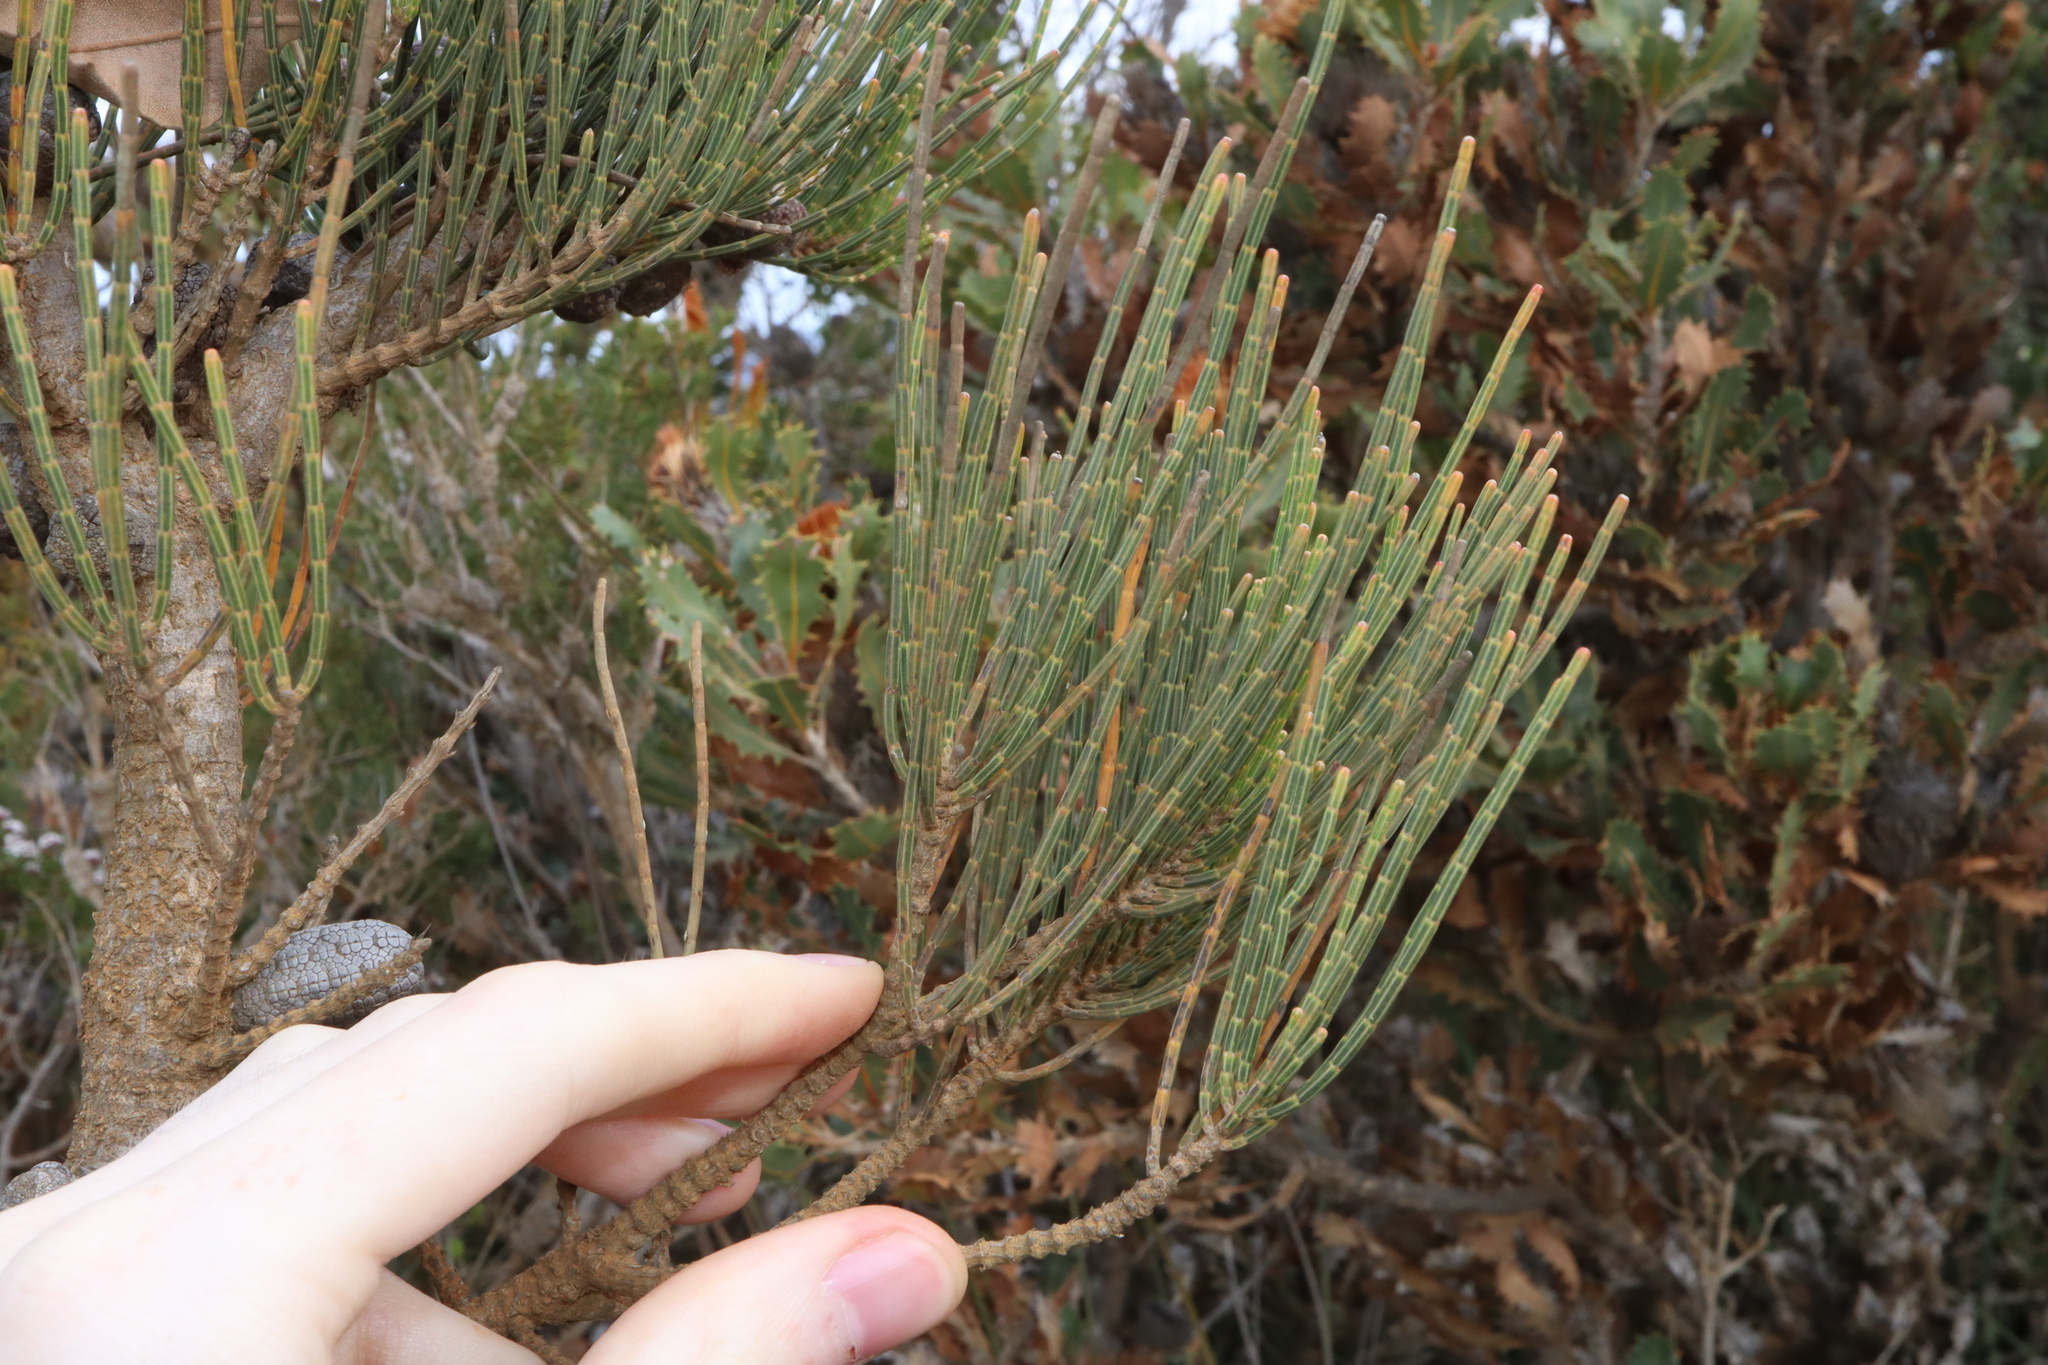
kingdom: Plantae
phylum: Tracheophyta
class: Magnoliopsida
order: Fagales
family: Casuarinaceae
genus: Allocasuarina
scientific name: Allocasuarina humilis
